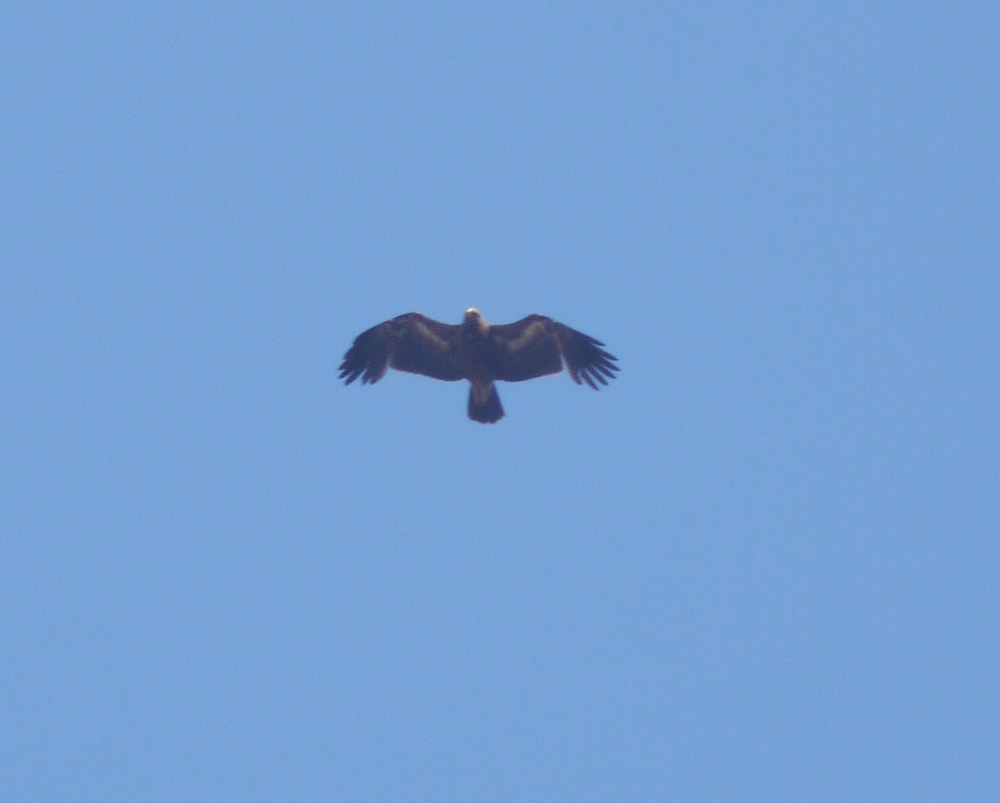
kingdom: Animalia
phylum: Chordata
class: Aves
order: Accipitriformes
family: Accipitridae
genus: Aquila
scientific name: Aquila nipalensis
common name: Steppe eagle
